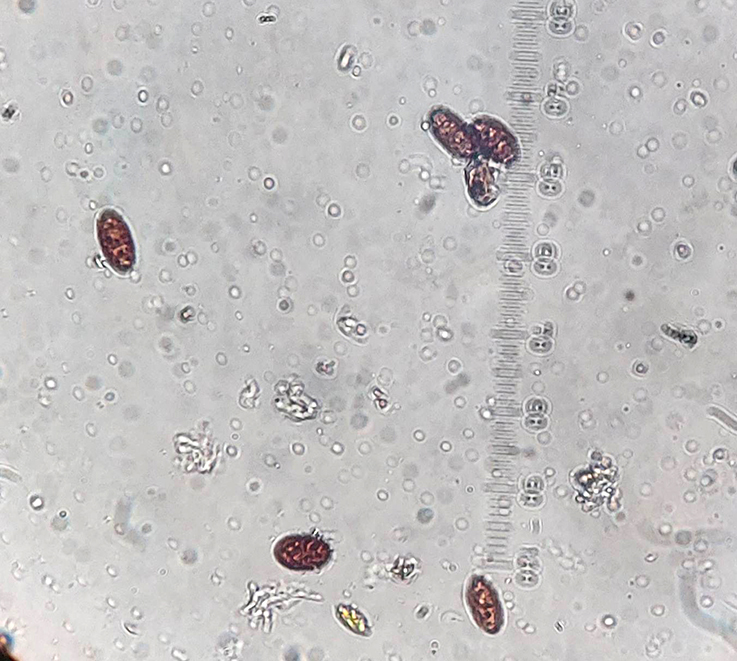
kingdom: Fungi
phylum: Ascomycota
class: Eurotiomycetes
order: Pyrenulales
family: Pyrenulaceae
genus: Lithothelium
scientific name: Lithothelium australe
